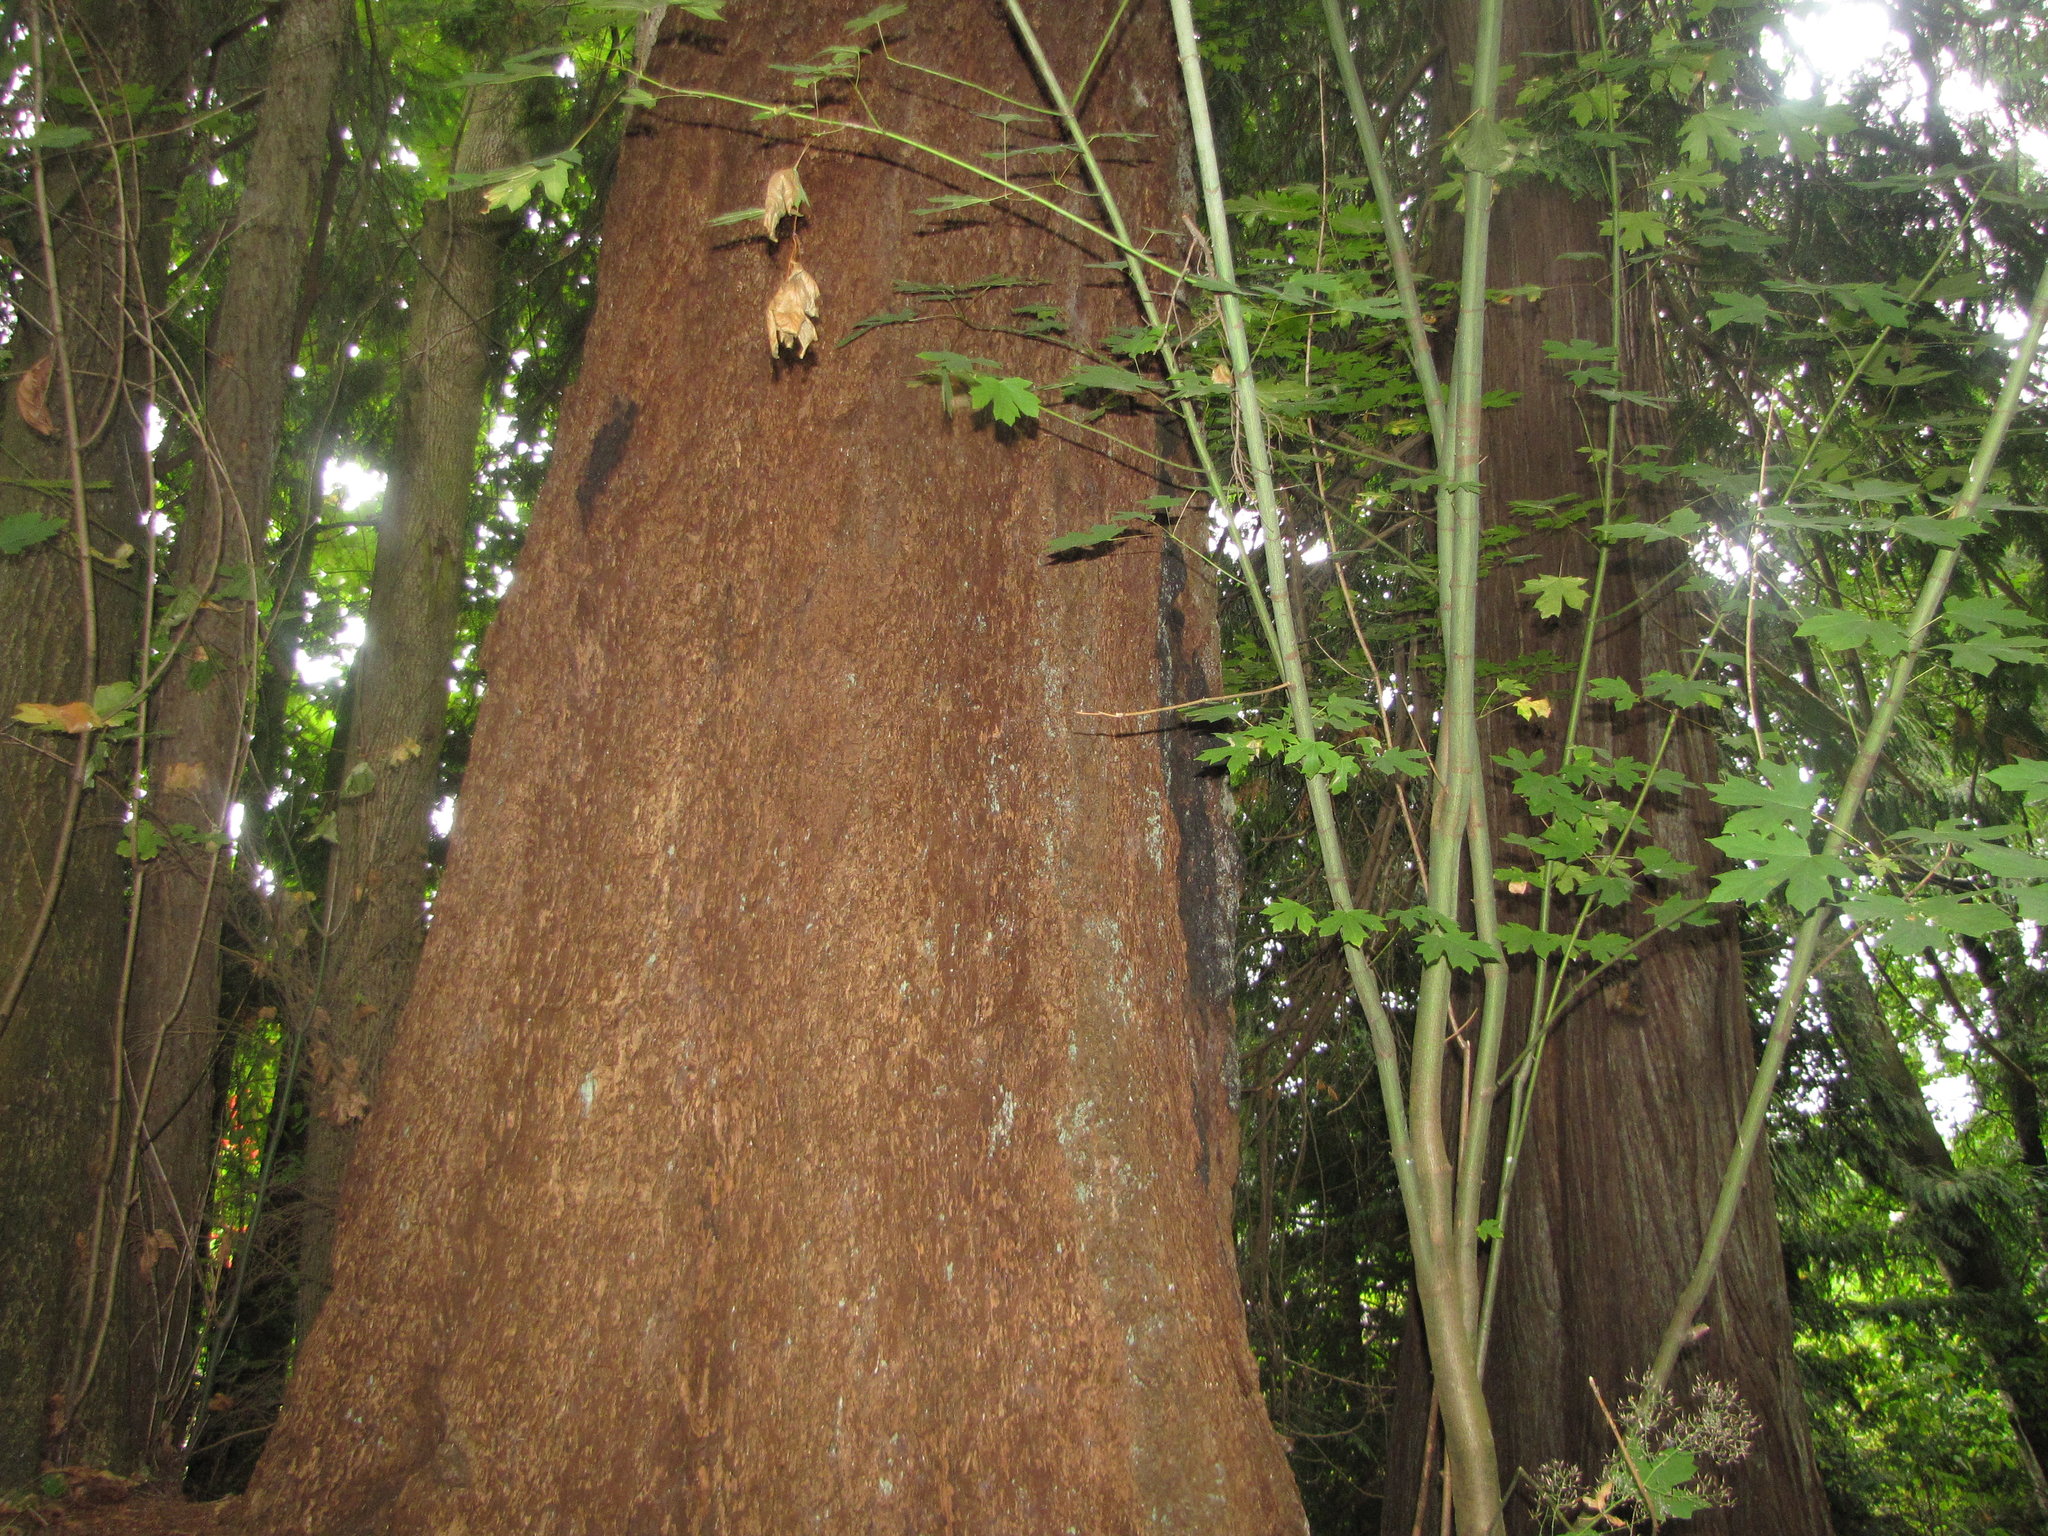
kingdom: Plantae
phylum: Tracheophyta
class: Pinopsida
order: Pinales
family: Cupressaceae
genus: Thuja
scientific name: Thuja plicata
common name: Western red-cedar
